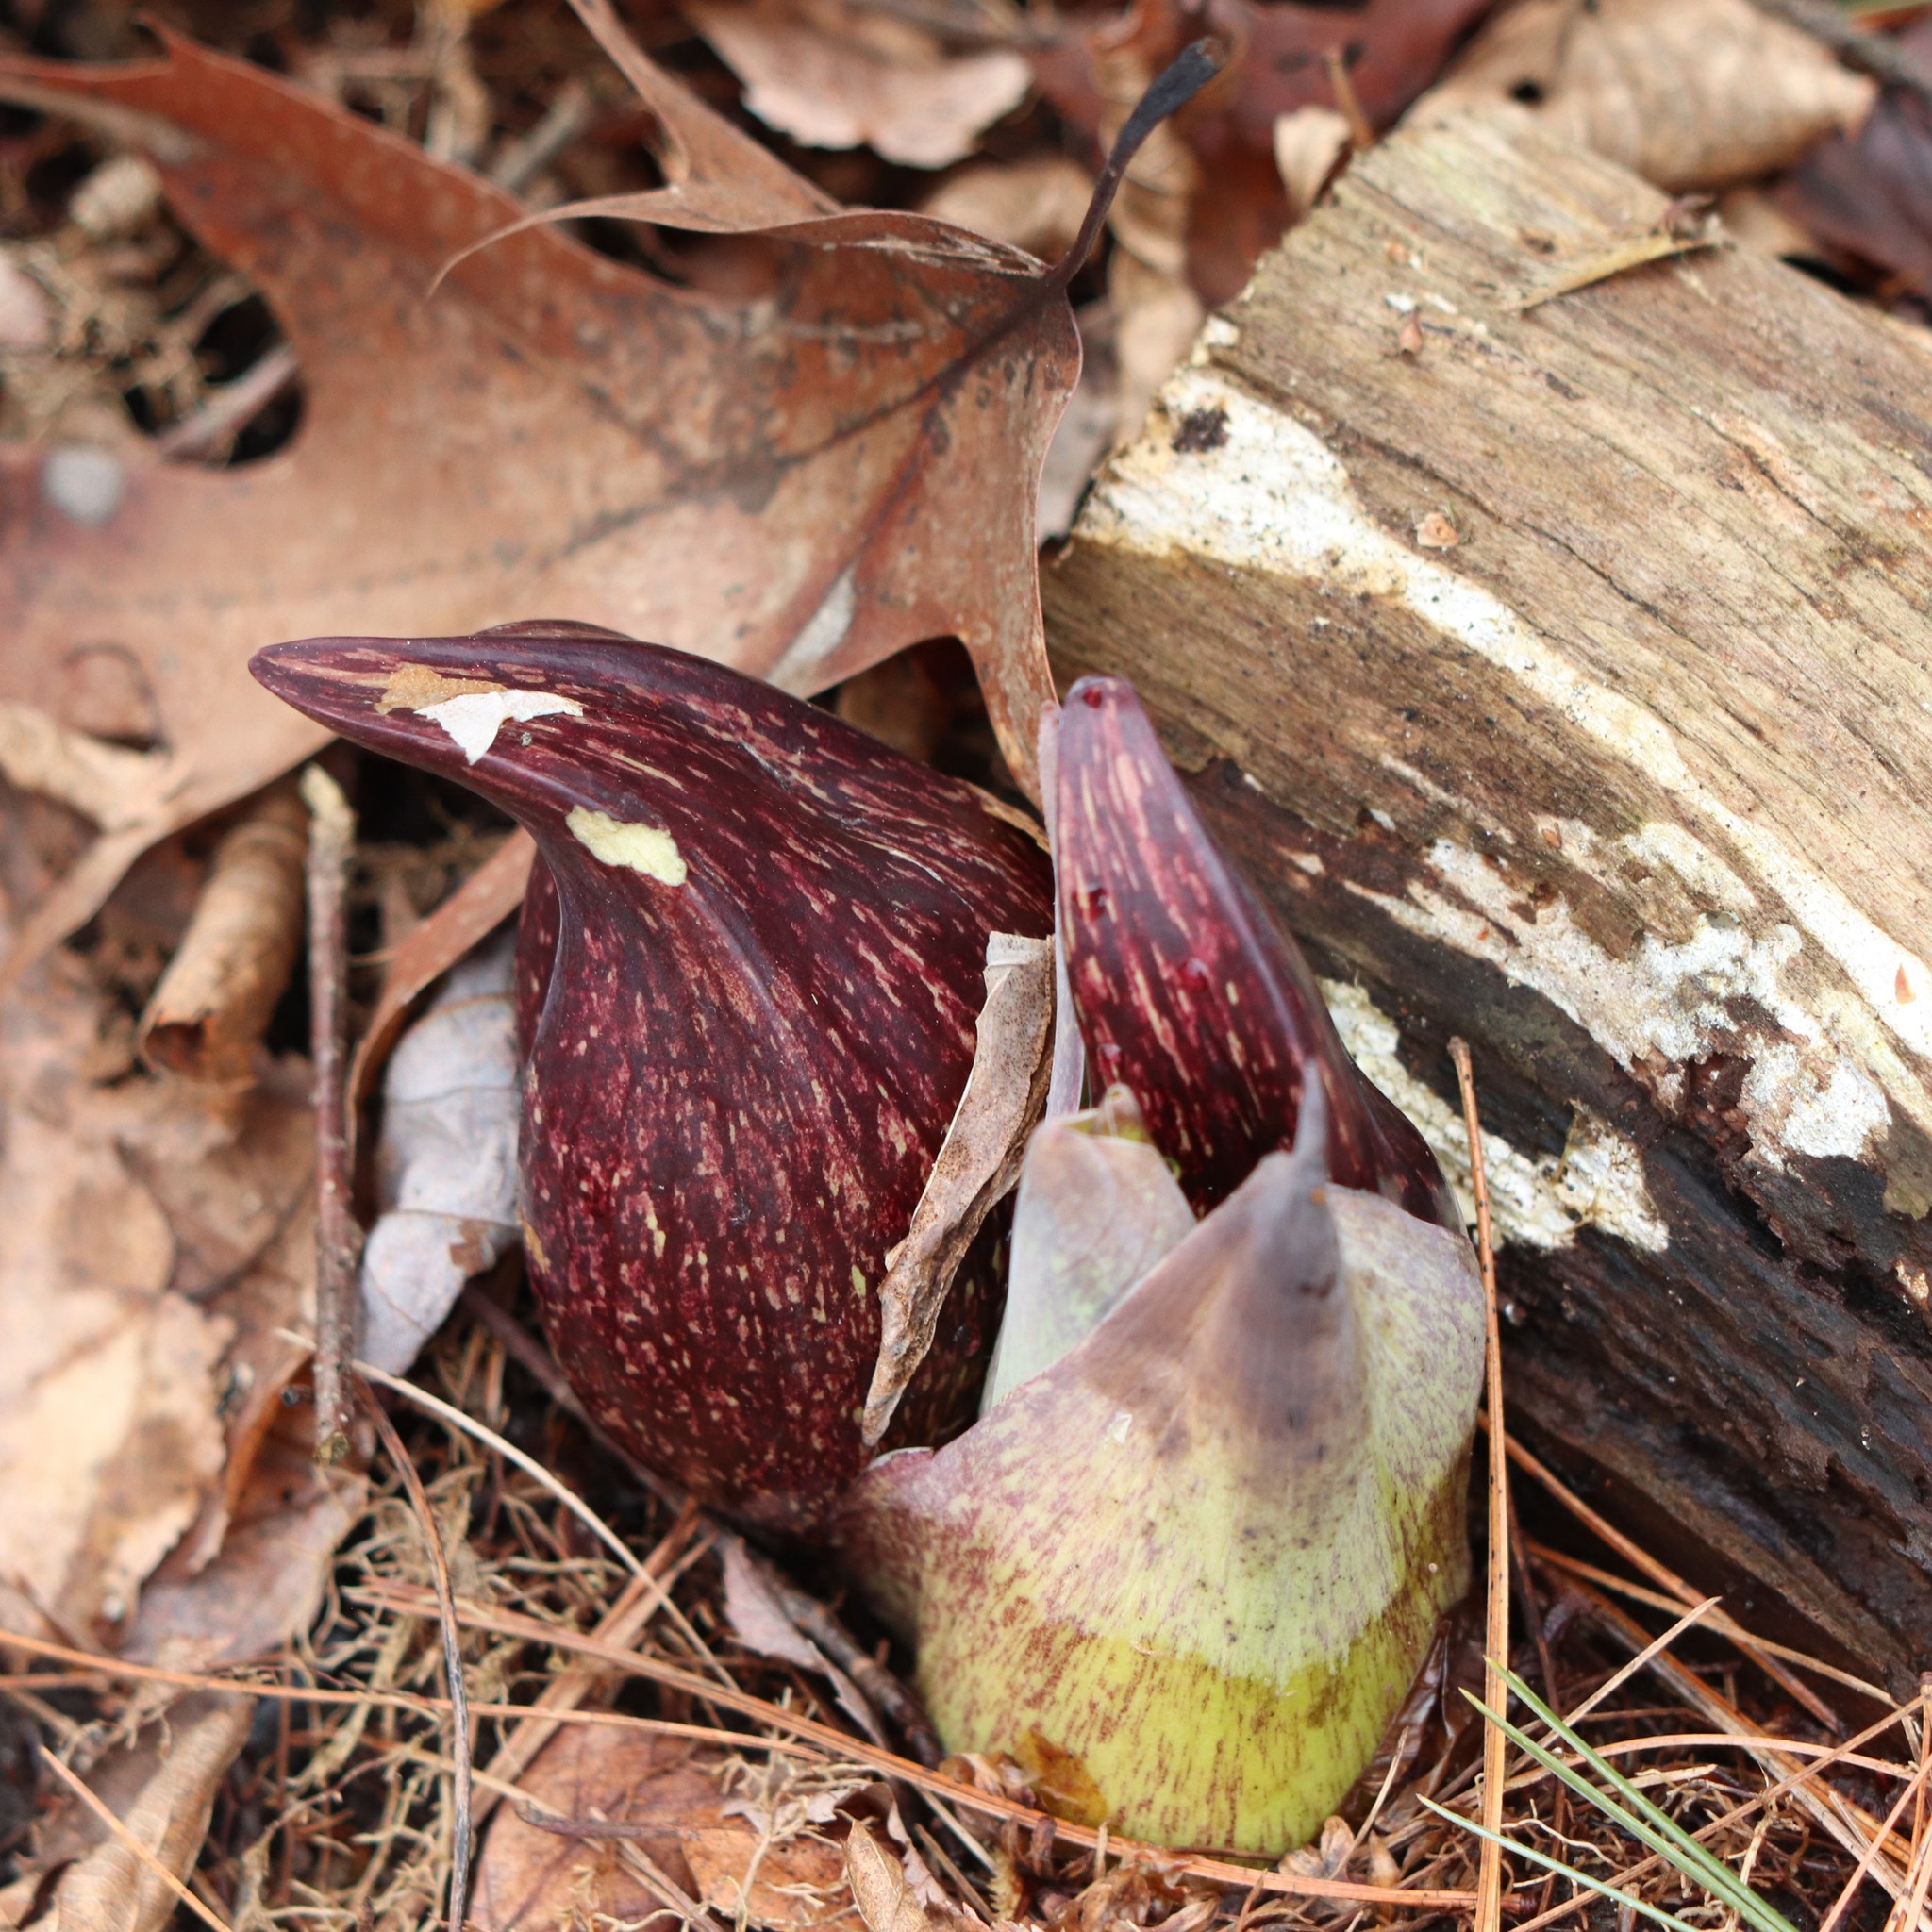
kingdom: Plantae
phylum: Tracheophyta
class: Liliopsida
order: Alismatales
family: Araceae
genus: Symplocarpus
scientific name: Symplocarpus foetidus
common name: Eastern skunk cabbage
